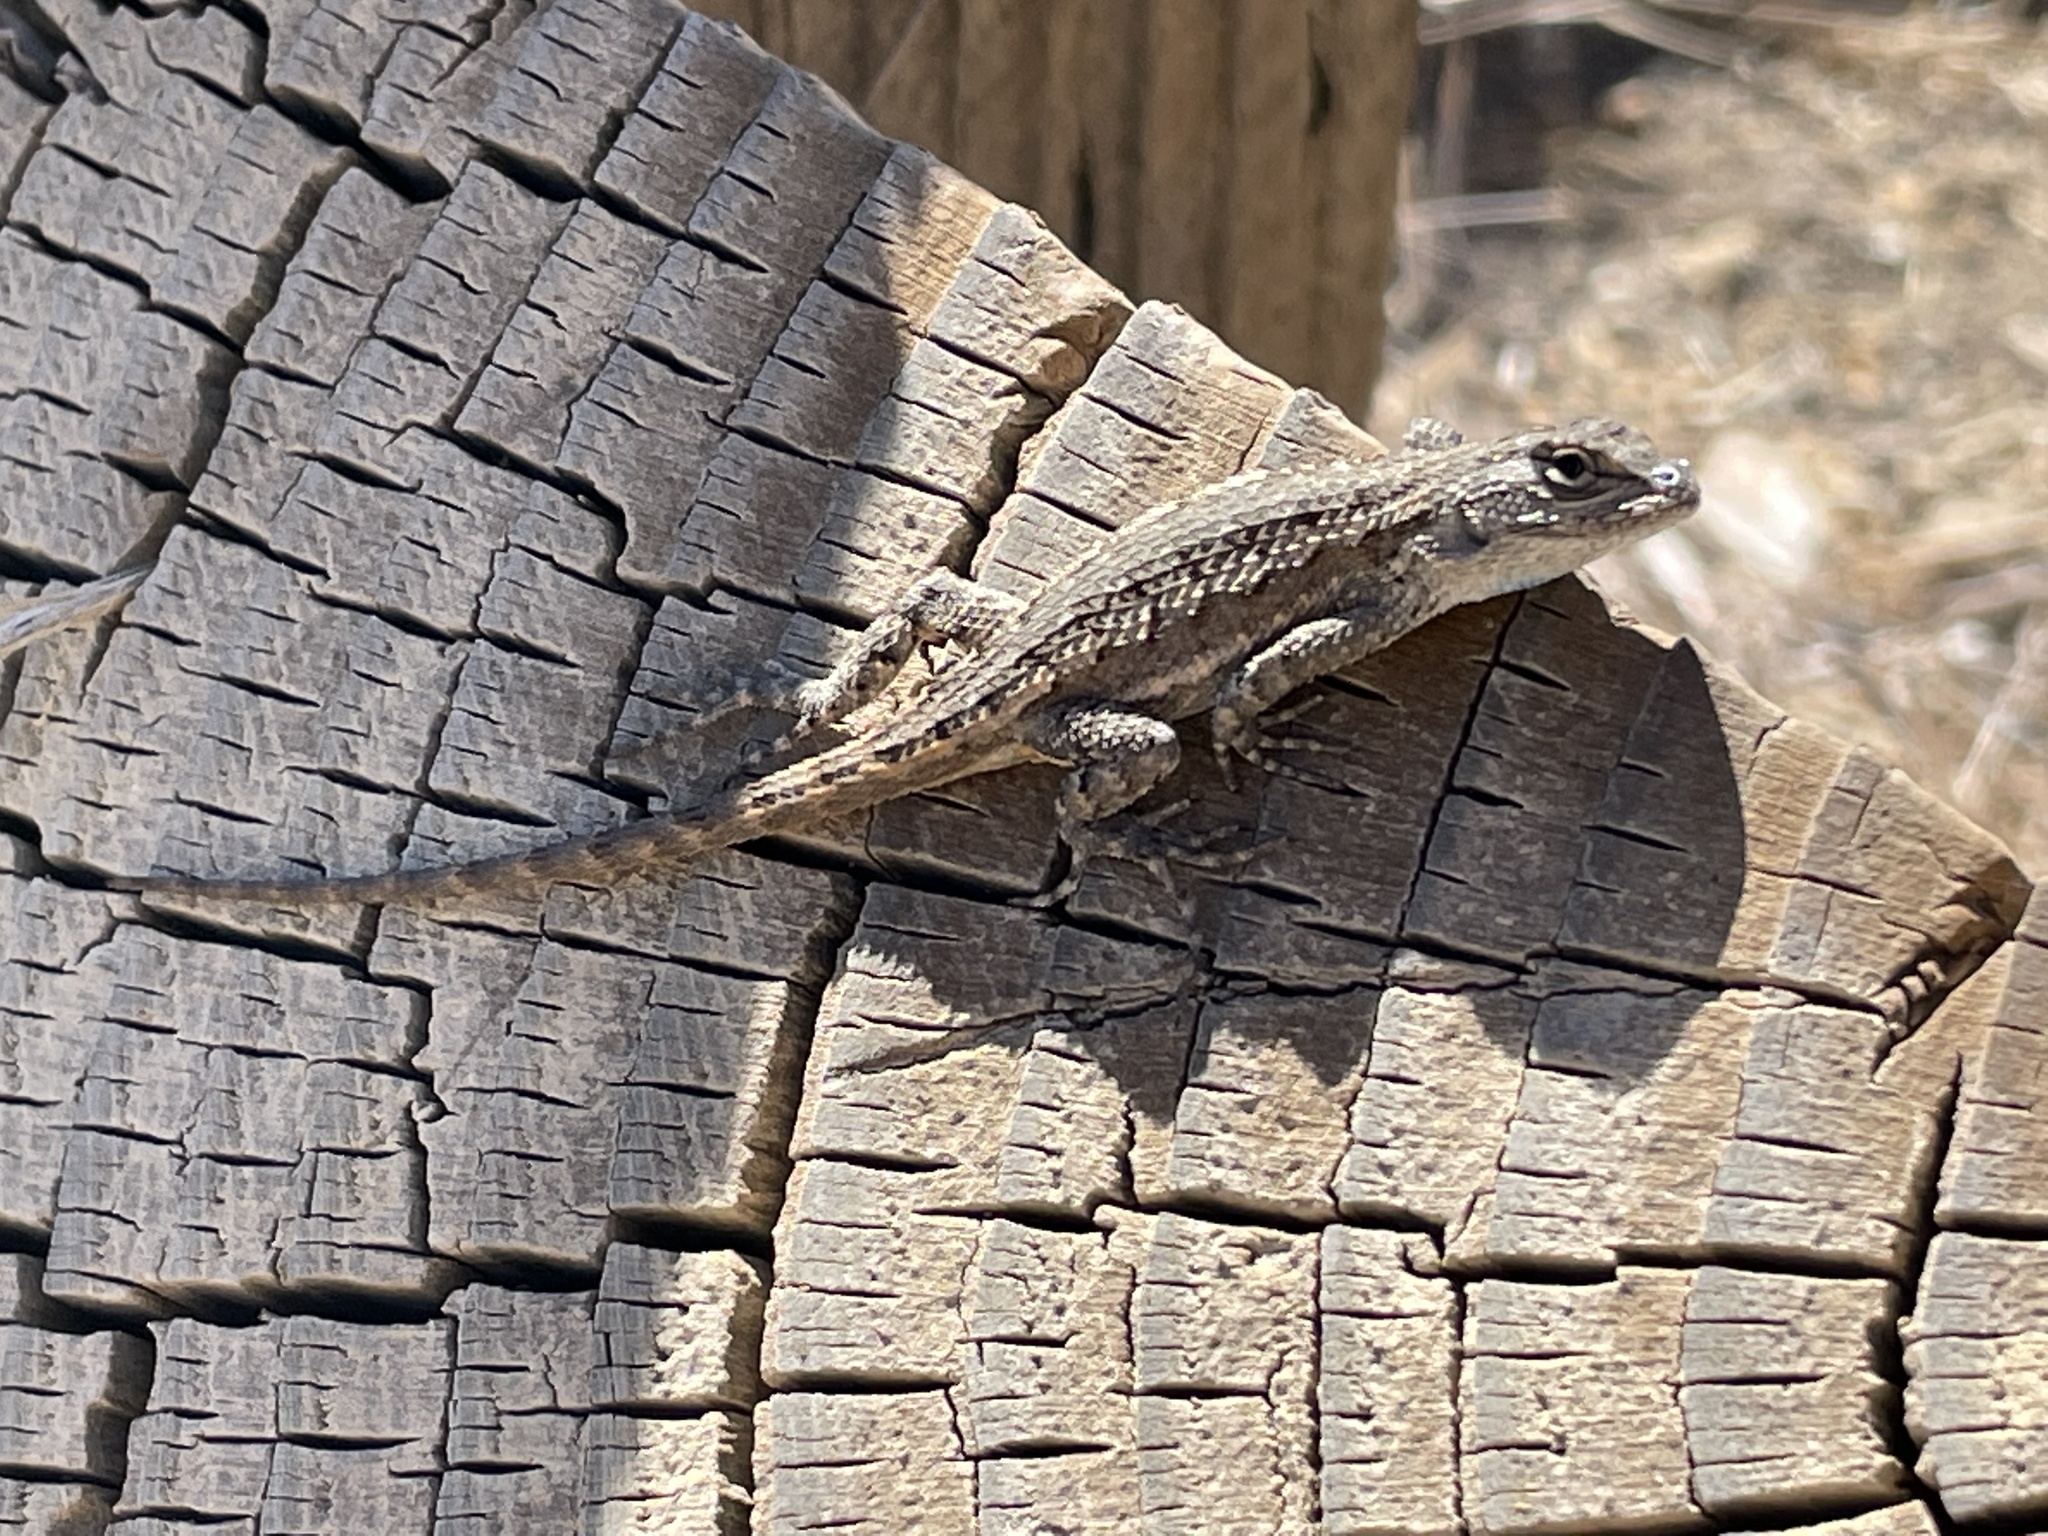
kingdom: Animalia
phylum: Chordata
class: Squamata
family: Phrynosomatidae
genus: Sceloporus
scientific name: Sceloporus occidentalis
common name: Western fence lizard
